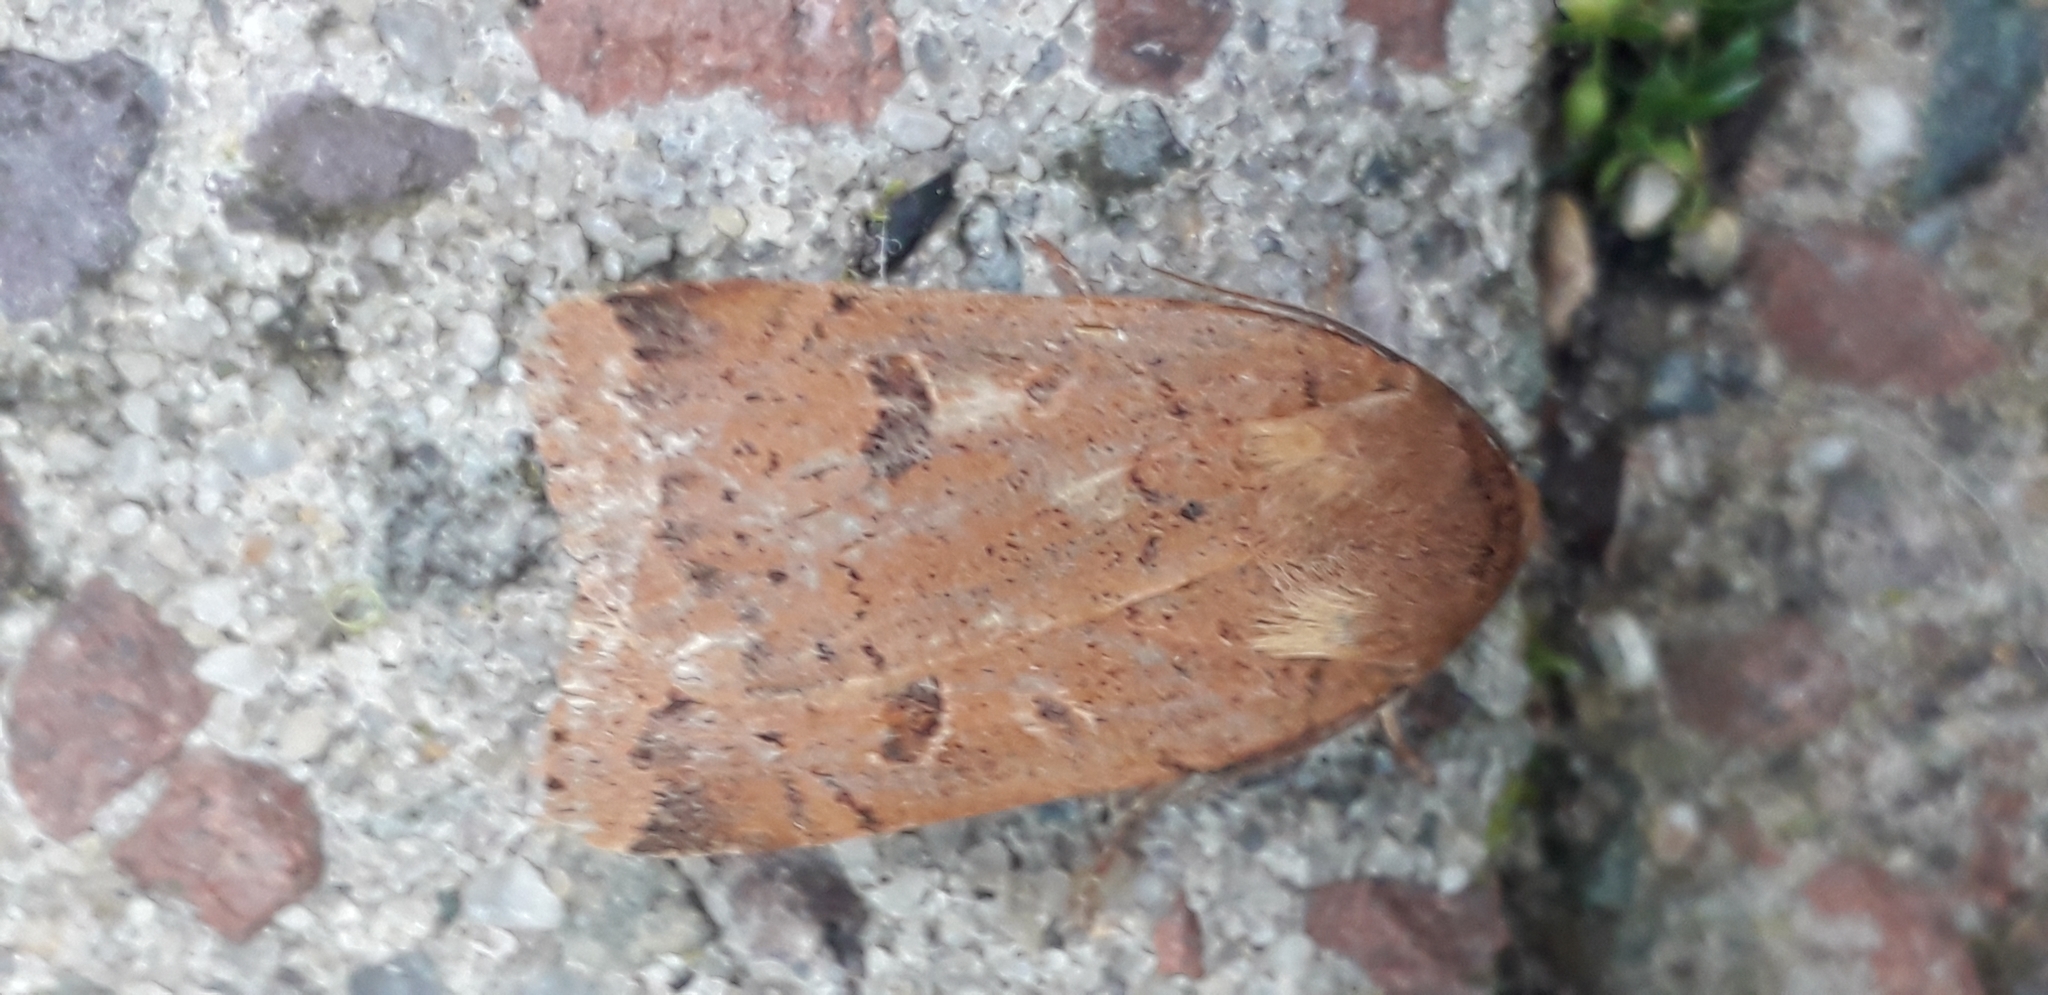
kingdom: Animalia
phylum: Arthropoda
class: Insecta
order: Lepidoptera
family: Noctuidae
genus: Noctua
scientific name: Noctua comes
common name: Lesser yellow underwing
